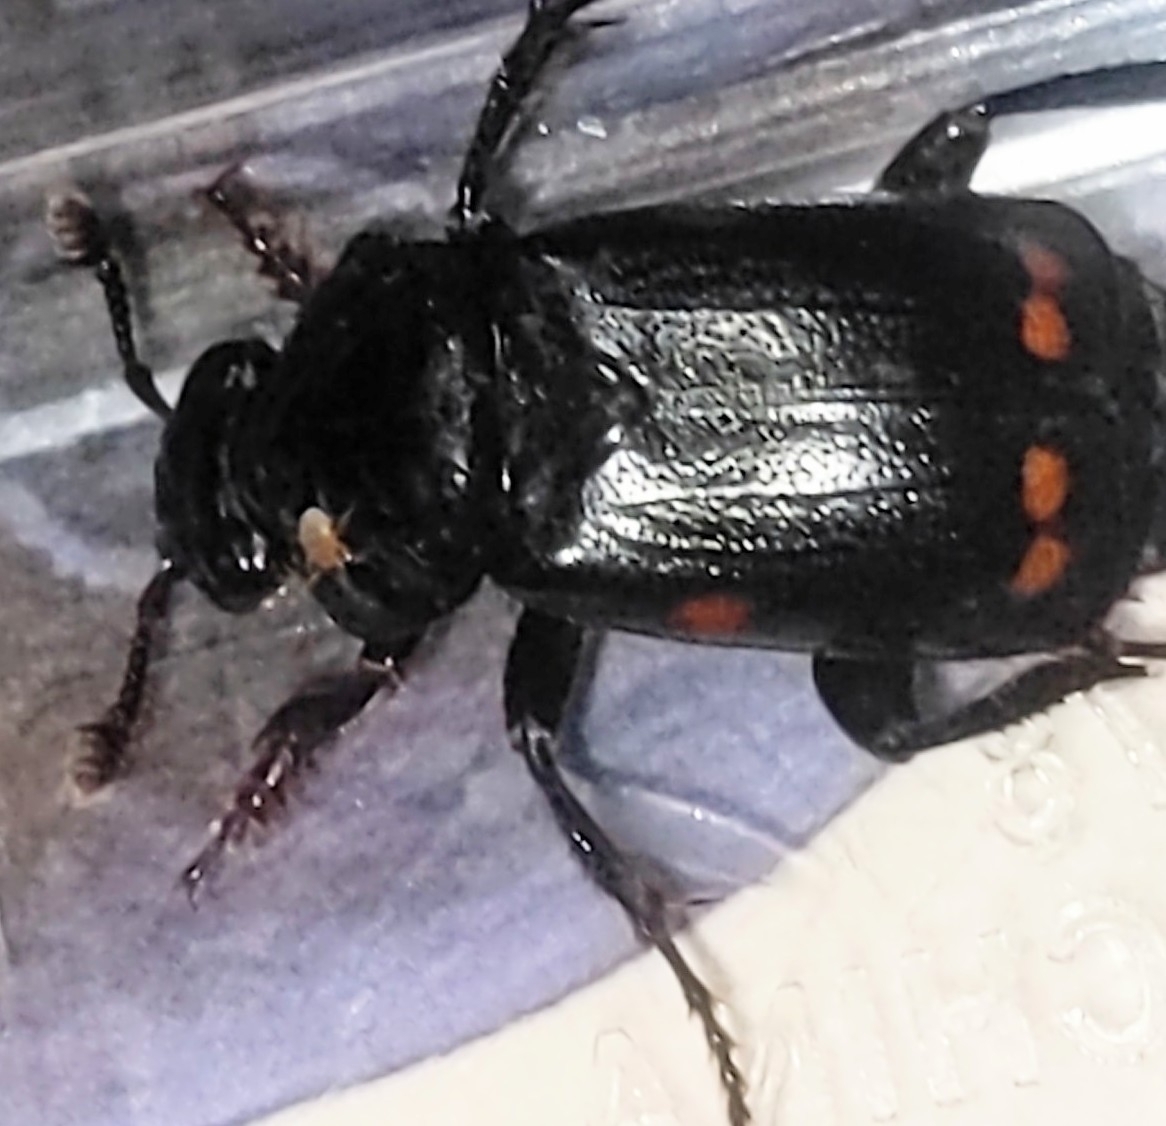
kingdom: Animalia
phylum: Arthropoda
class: Insecta
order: Coleoptera
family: Staphylinidae
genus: Nicrophorus
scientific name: Nicrophorus pustulatus
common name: Pustulated carrion beetle
